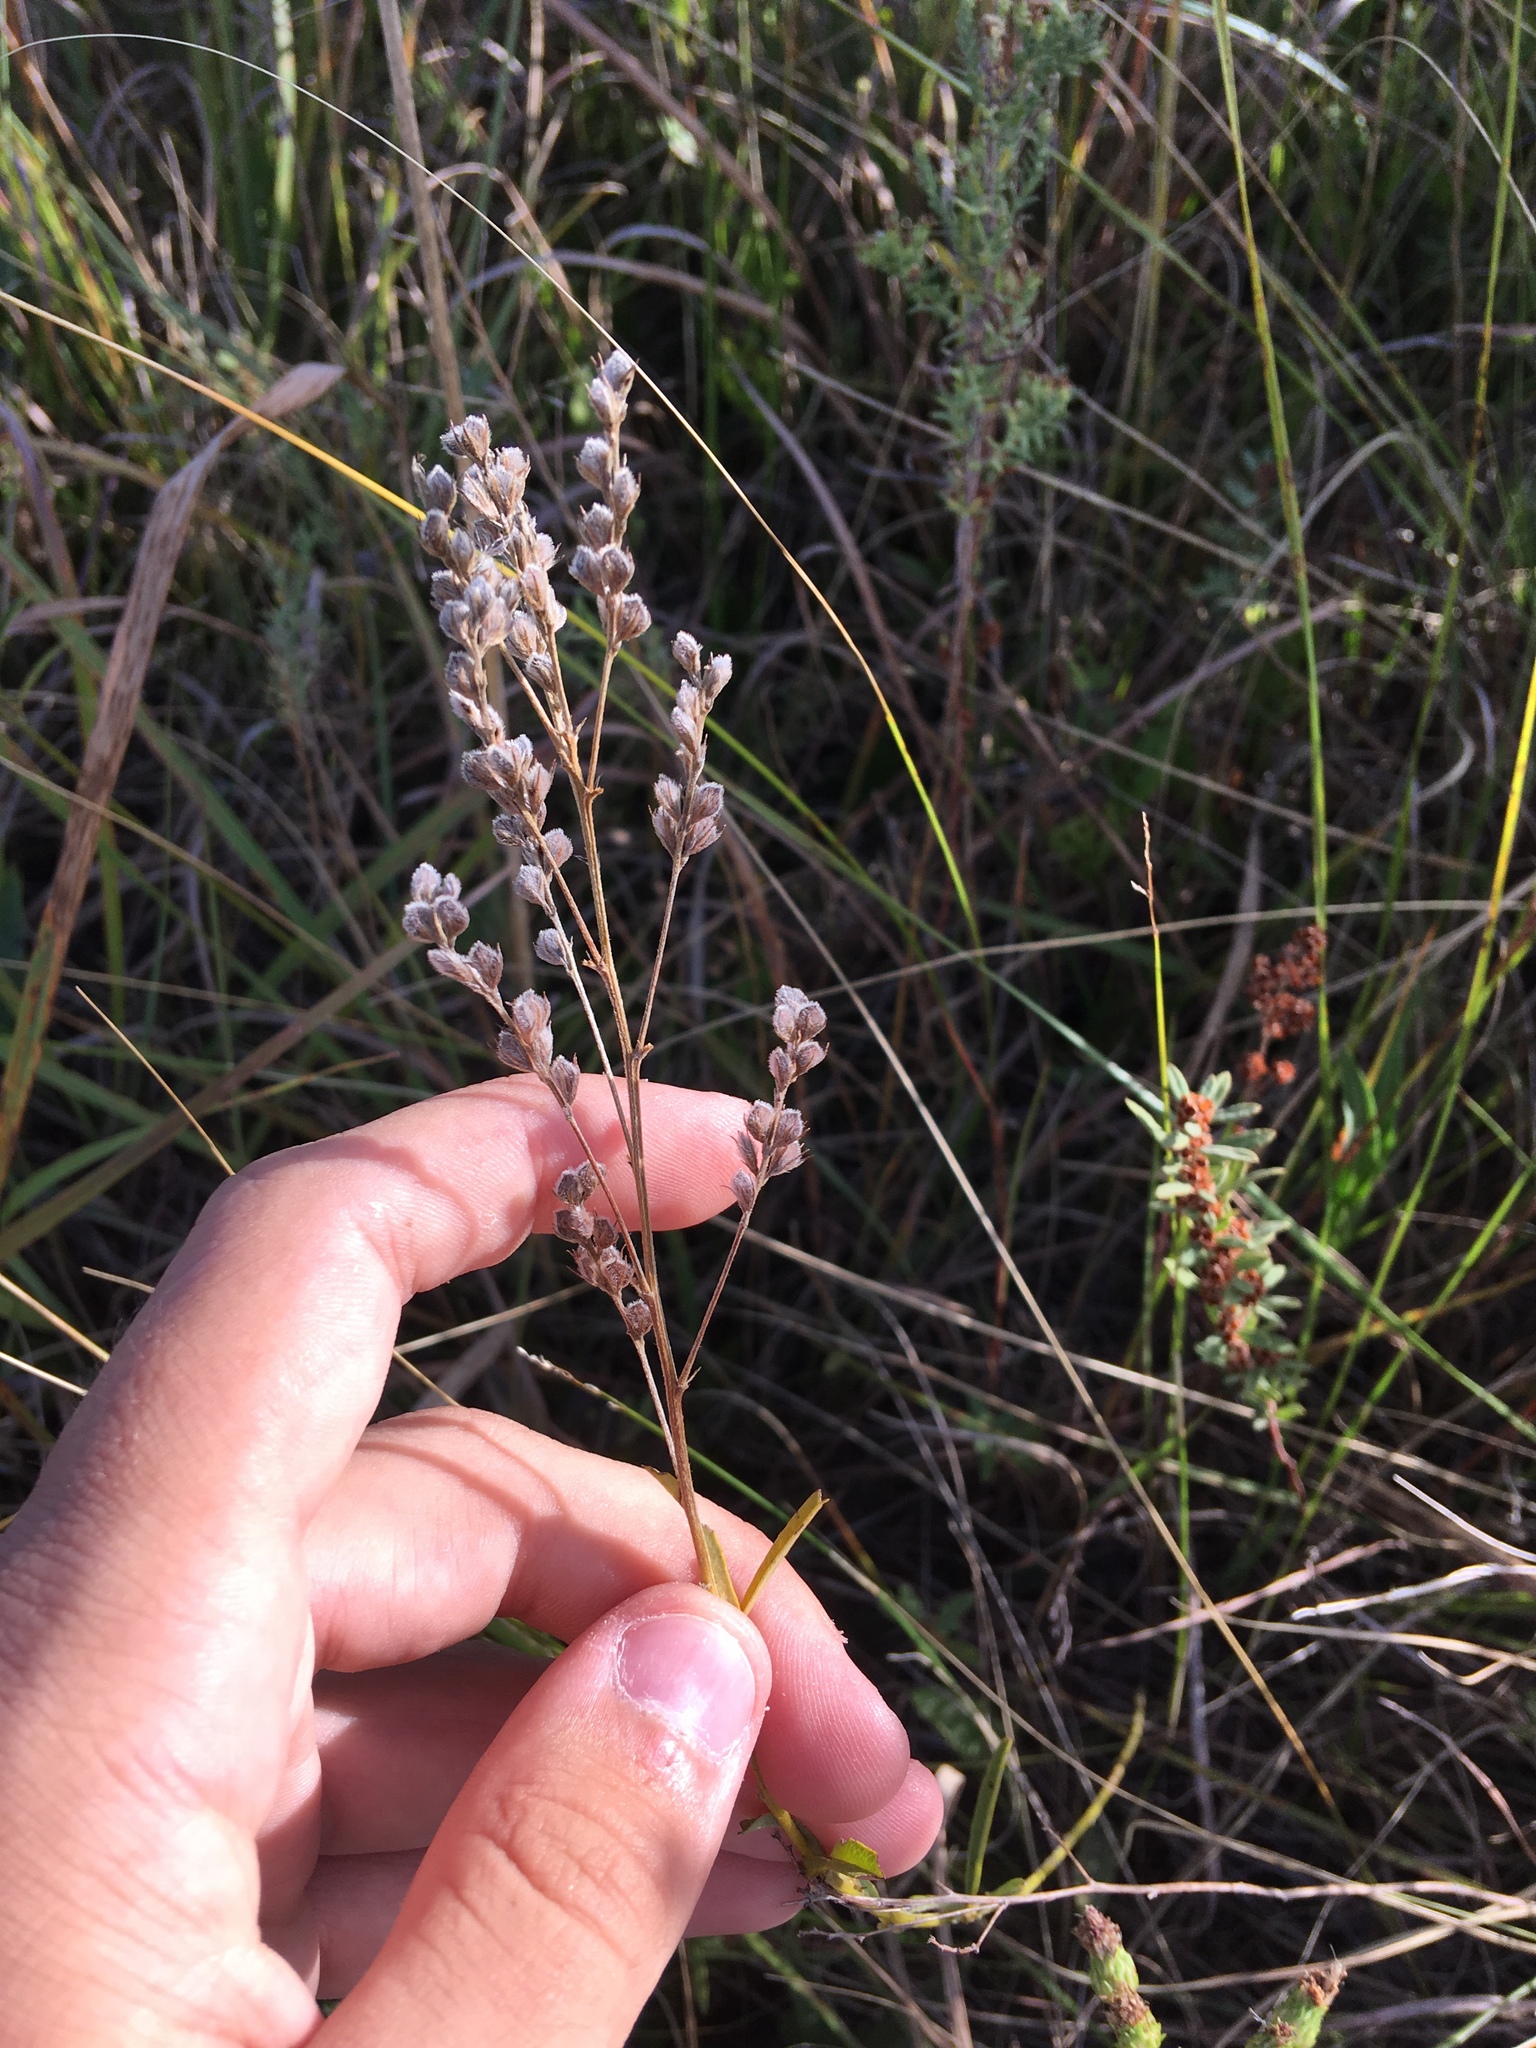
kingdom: Plantae
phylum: Tracheophyta
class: Magnoliopsida
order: Fabales
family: Fabaceae
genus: Lespedeza
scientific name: Lespedeza leptostachya
